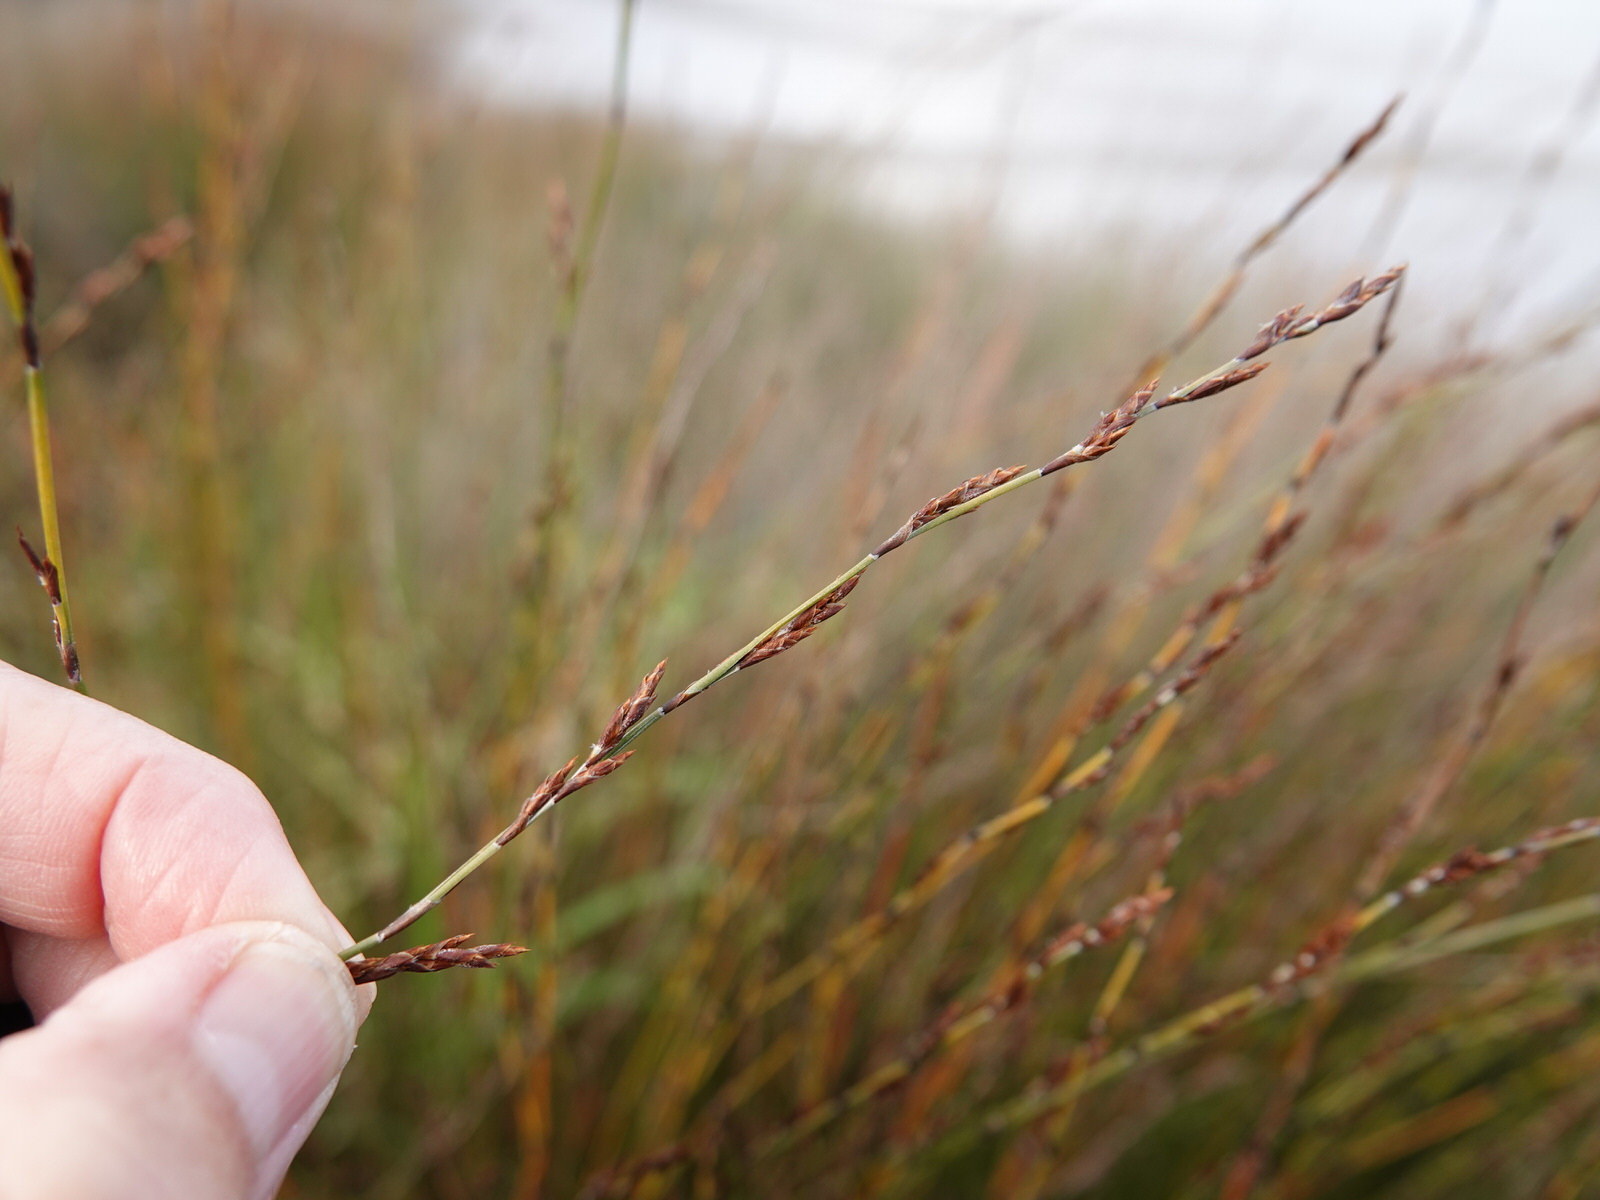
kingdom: Plantae
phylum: Tracheophyta
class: Liliopsida
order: Poales
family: Restionaceae
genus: Apodasmia
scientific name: Apodasmia similis
